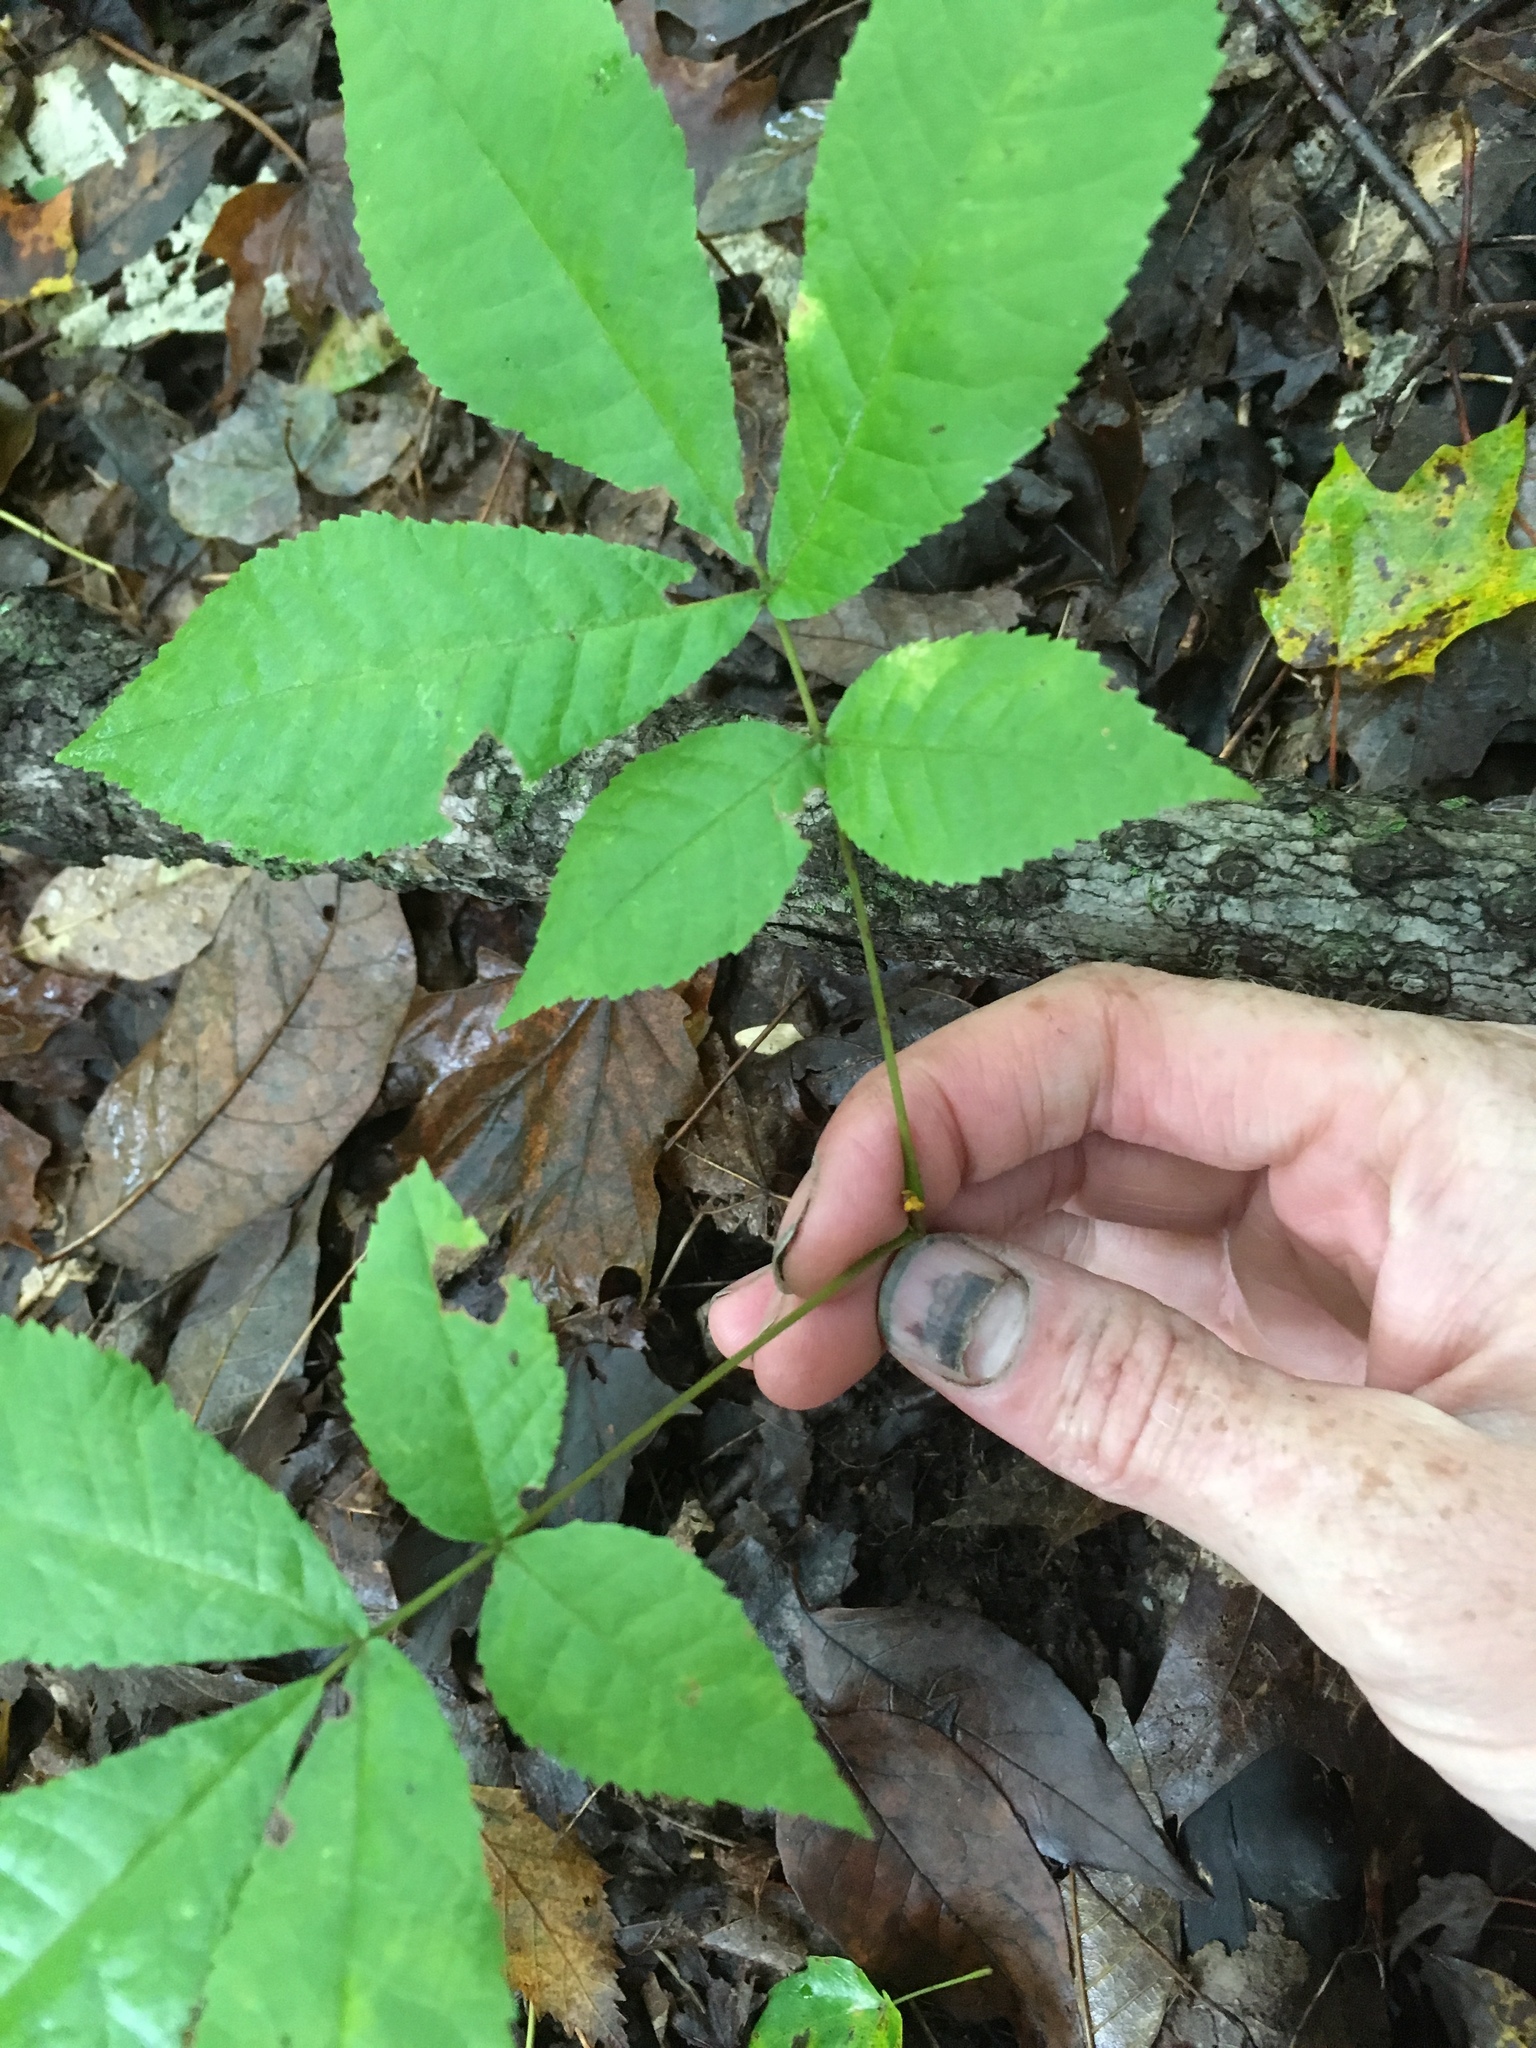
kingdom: Plantae
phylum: Tracheophyta
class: Magnoliopsida
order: Fagales
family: Juglandaceae
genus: Carya
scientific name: Carya cordiformis
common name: Bitternut hickory
